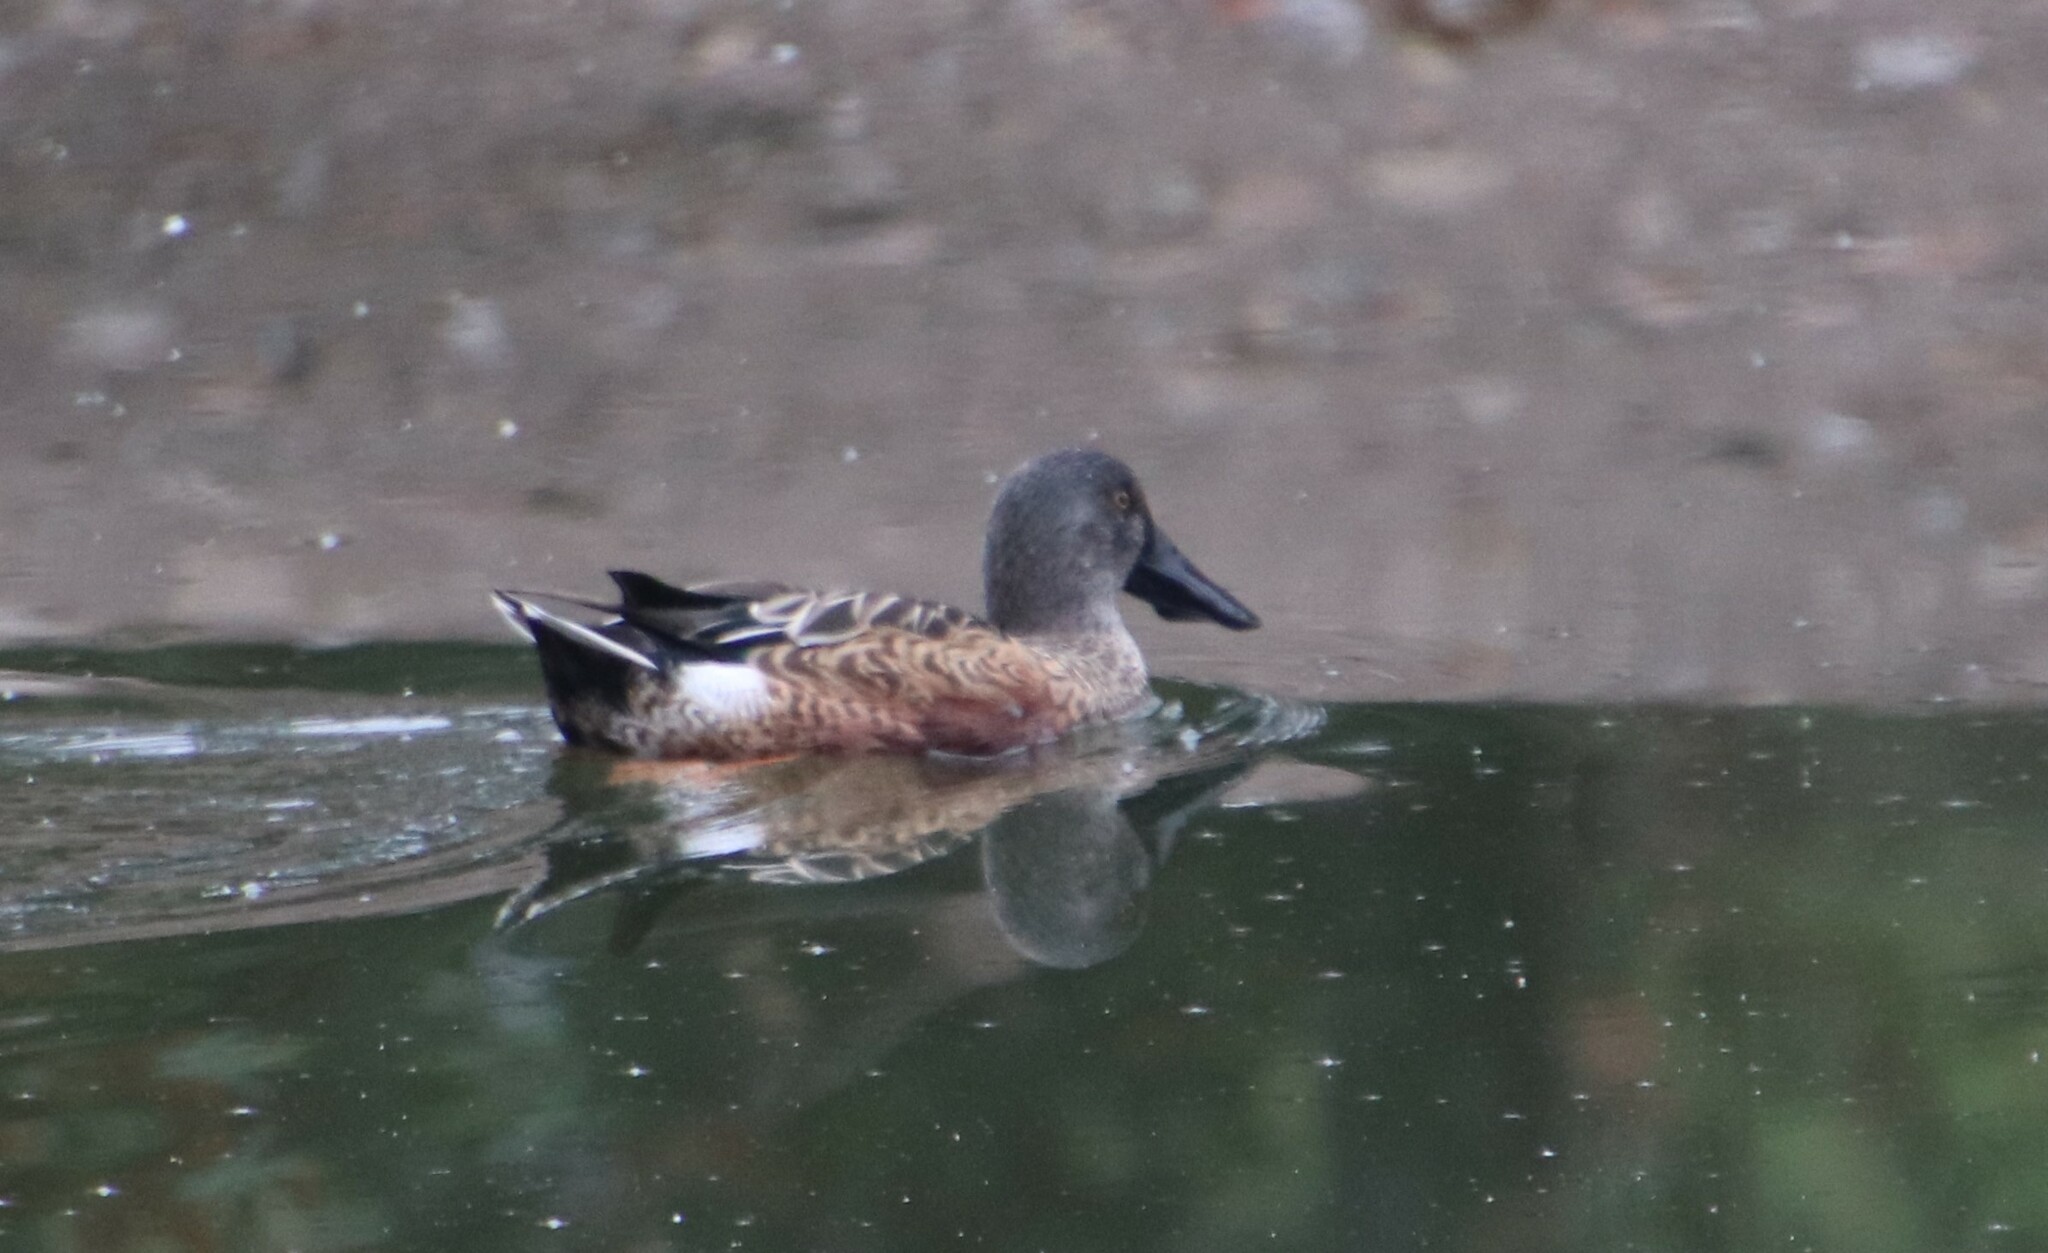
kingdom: Animalia
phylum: Chordata
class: Aves
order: Anseriformes
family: Anatidae
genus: Spatula
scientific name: Spatula clypeata
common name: Northern shoveler
